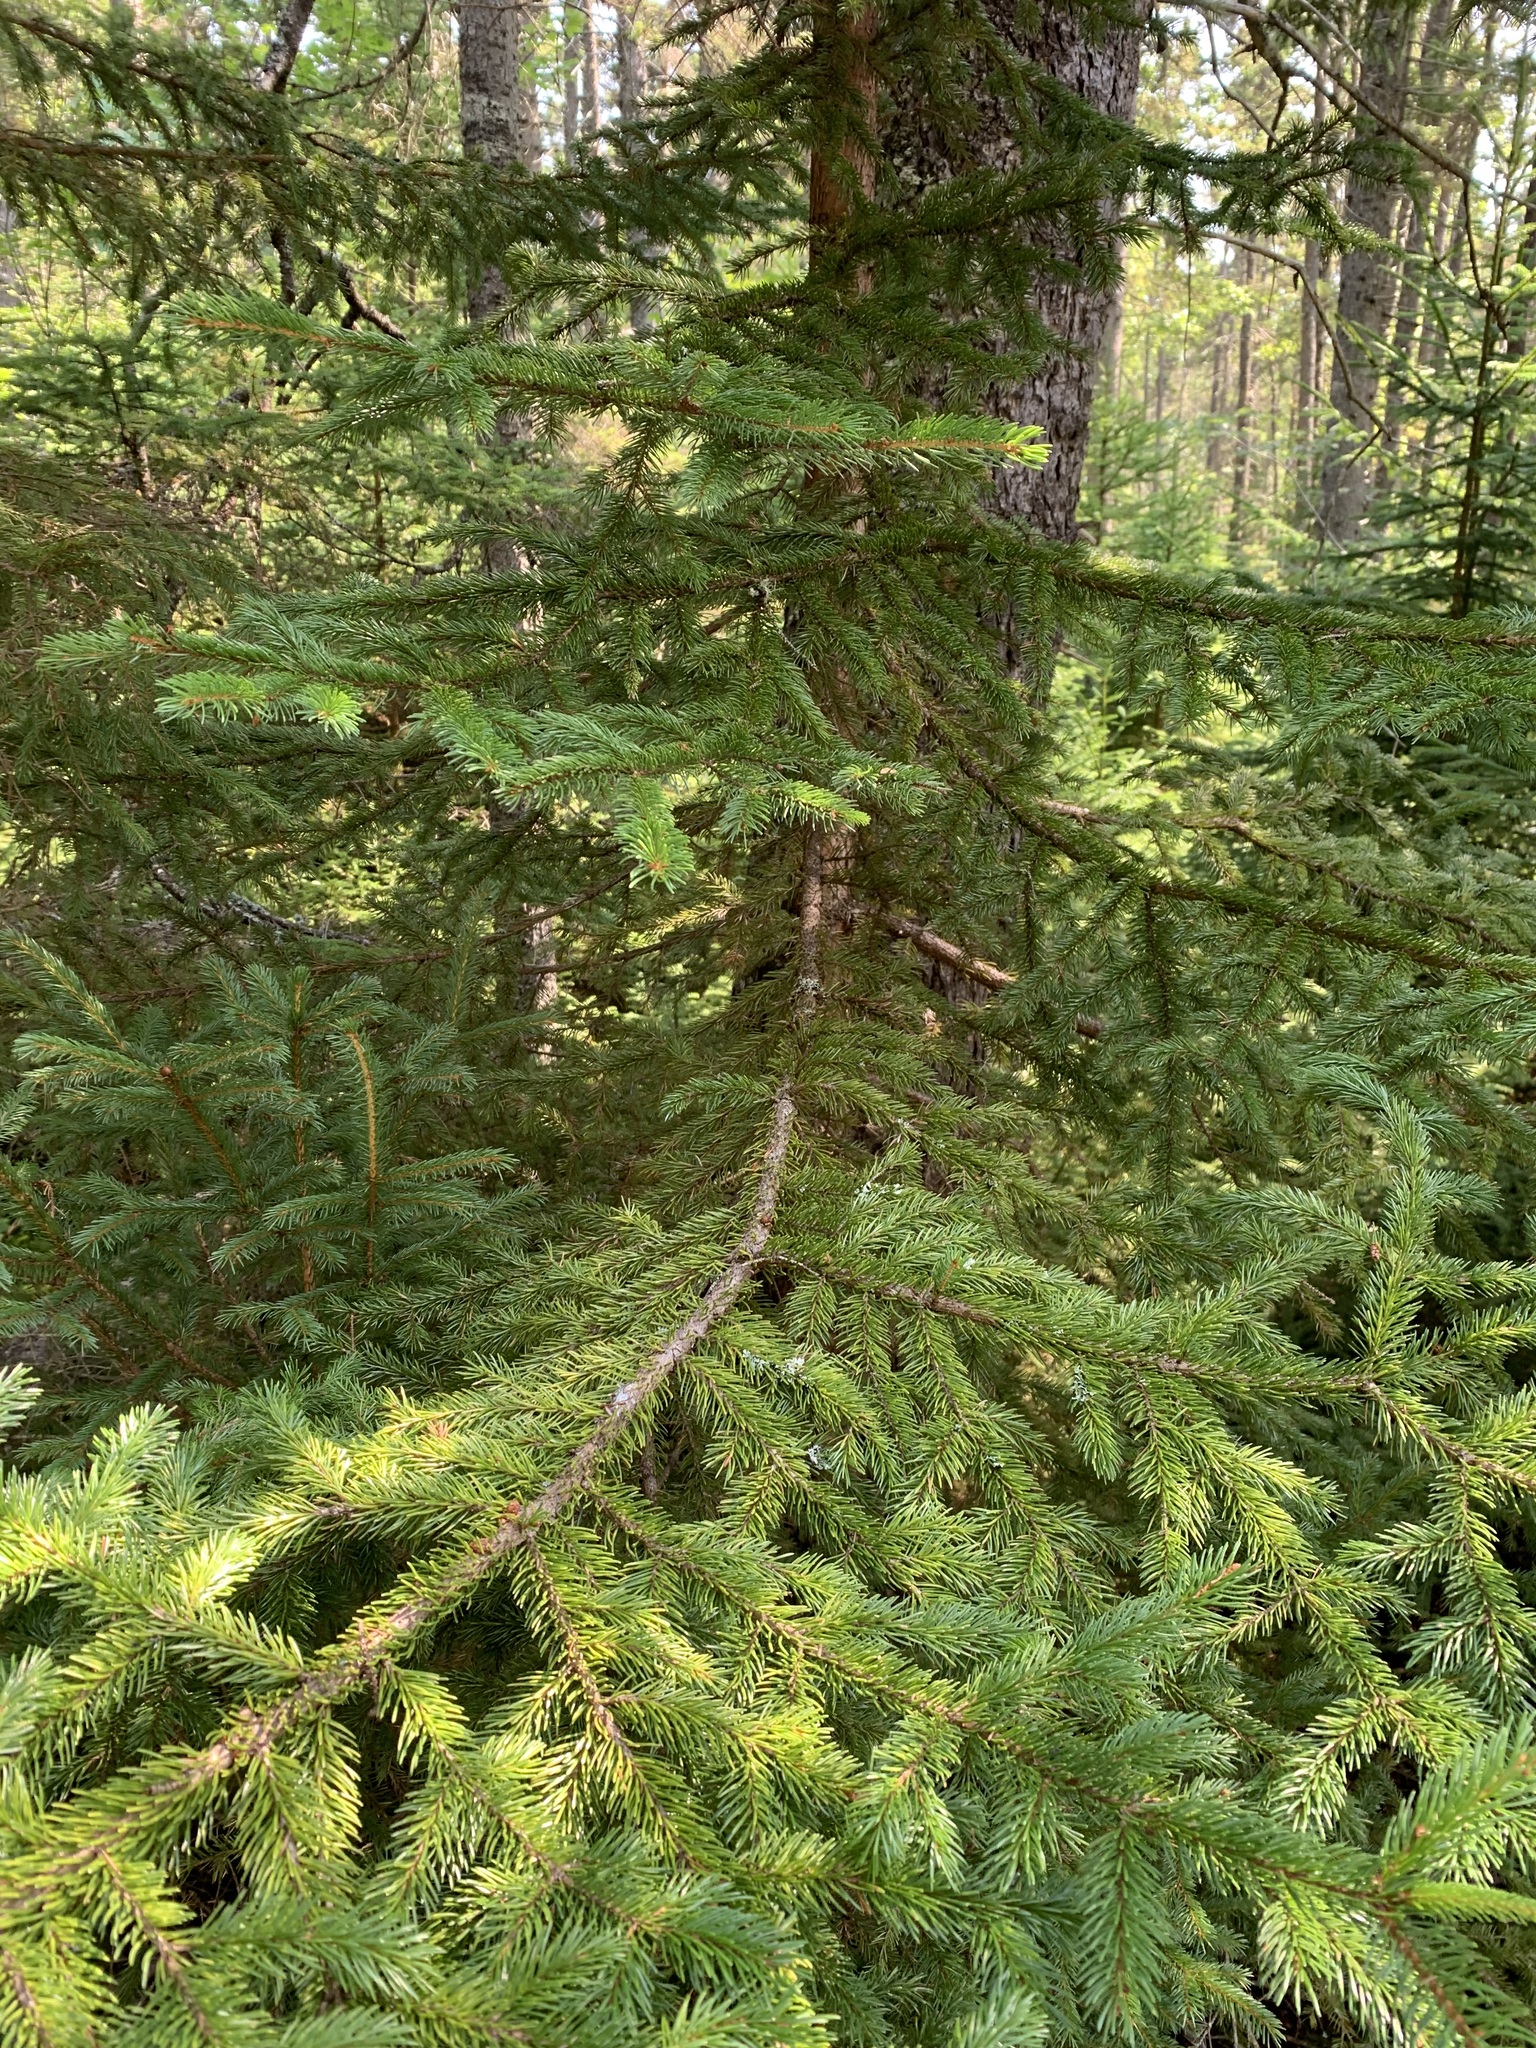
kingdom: Plantae
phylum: Tracheophyta
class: Pinopsida
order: Pinales
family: Pinaceae
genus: Picea
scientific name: Picea rubens
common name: Red spruce
